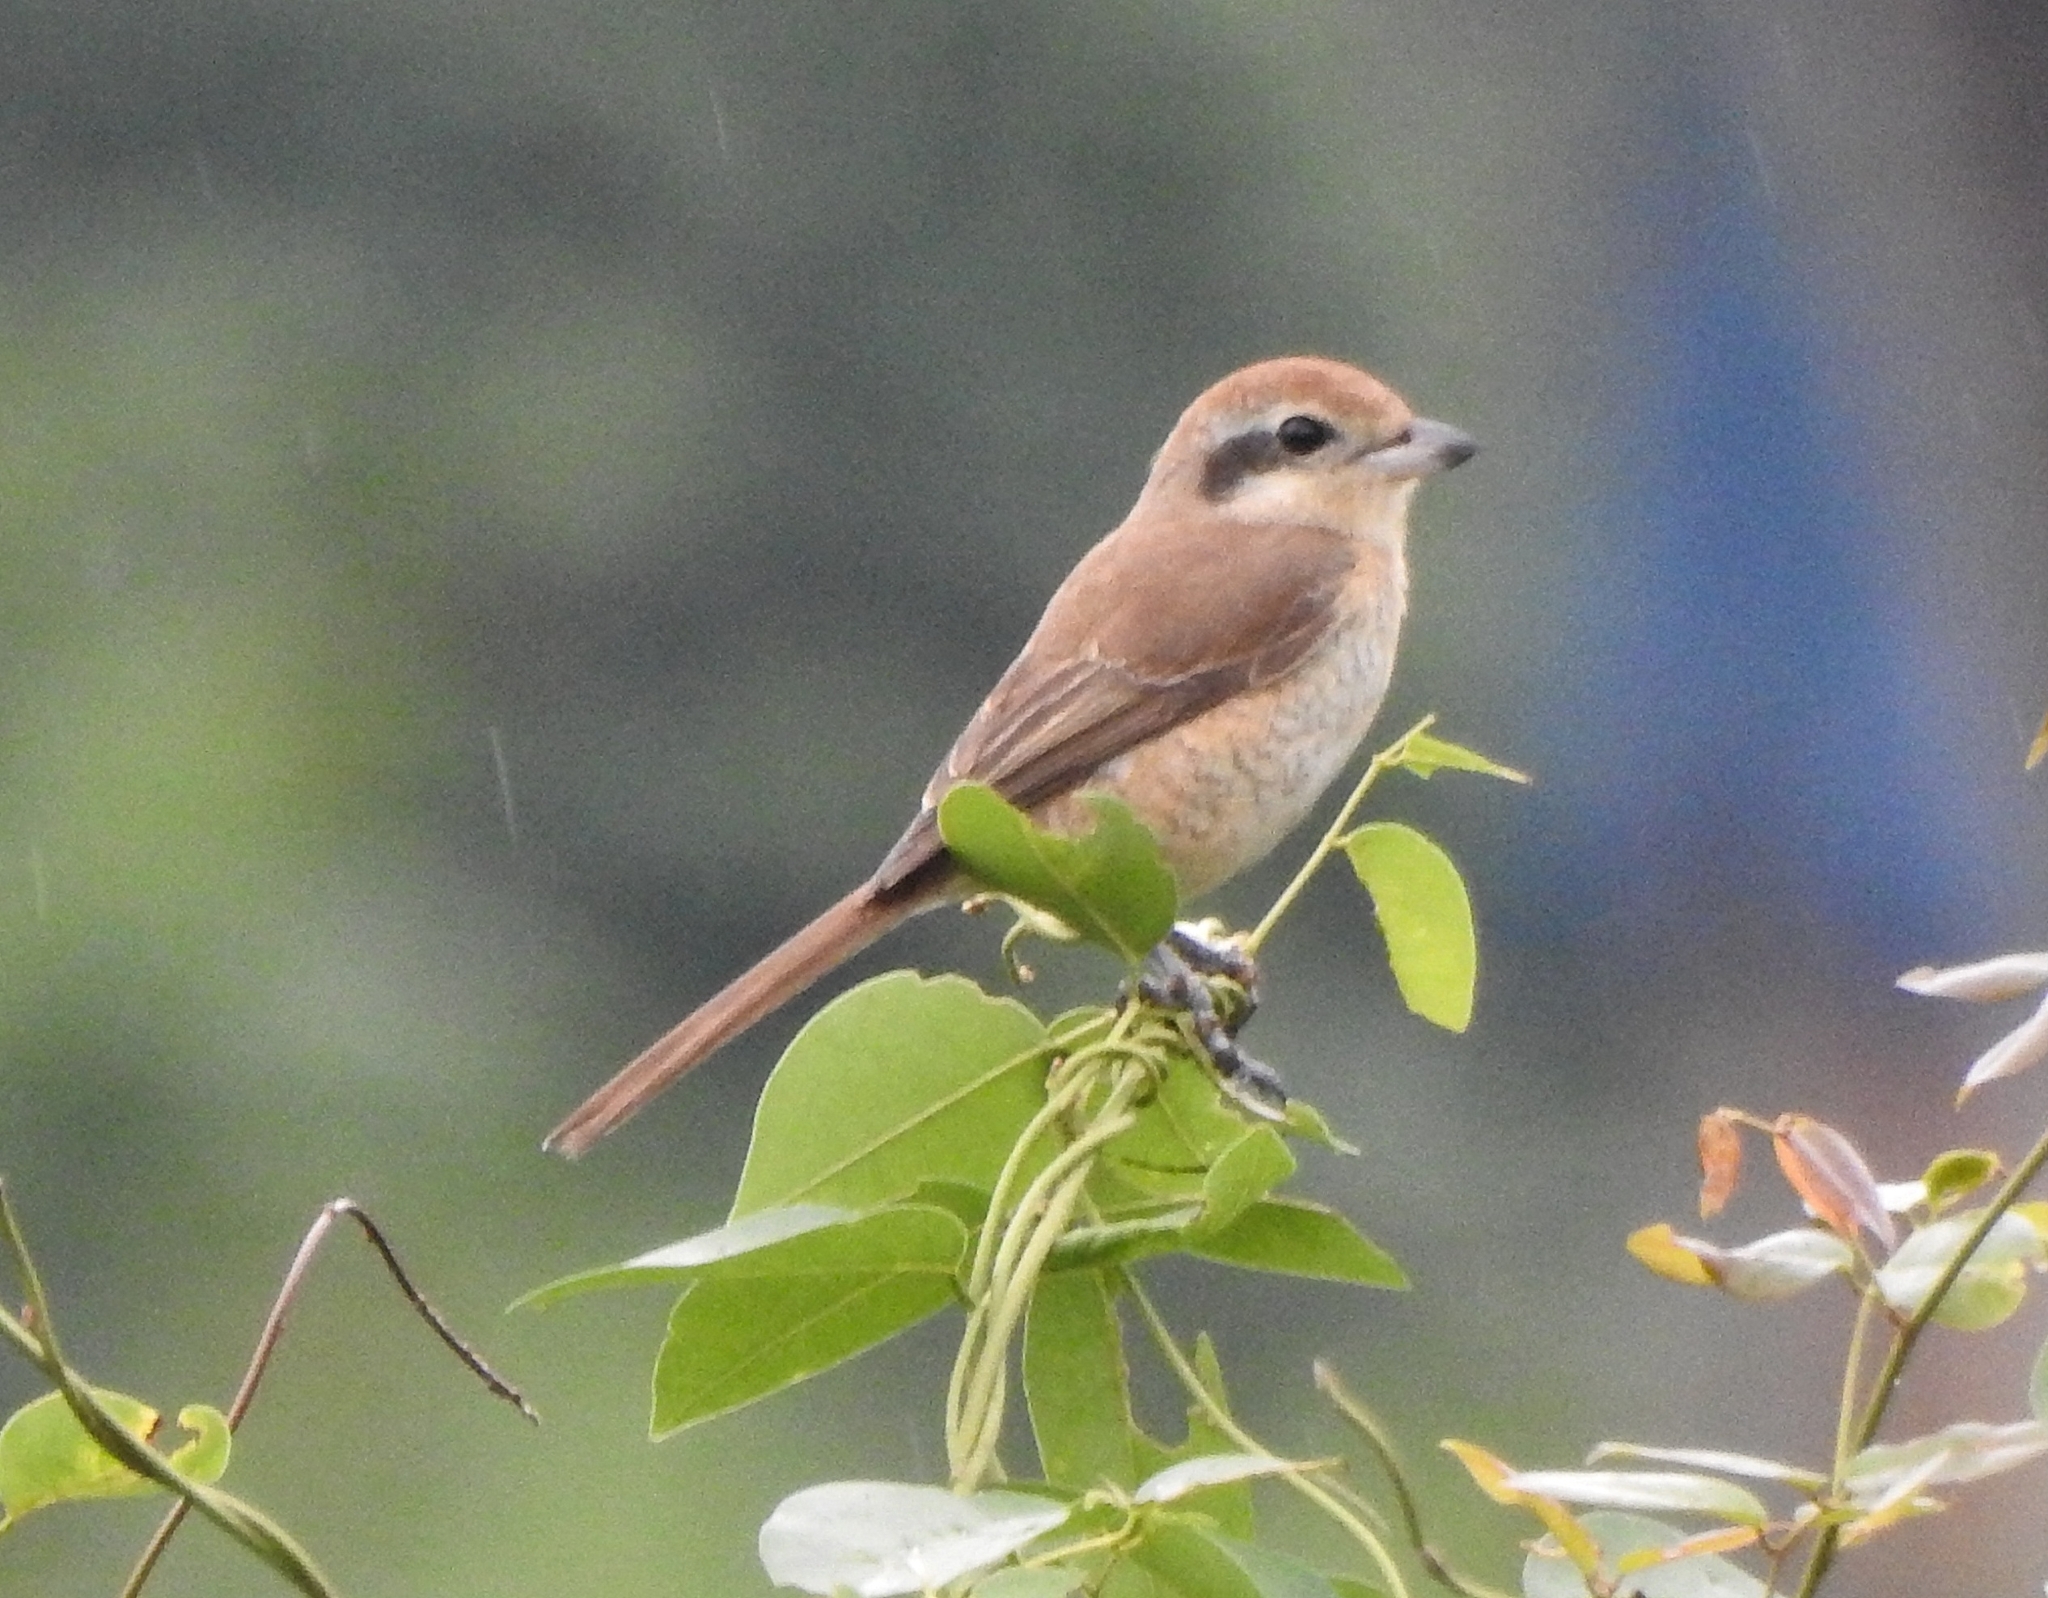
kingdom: Animalia
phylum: Chordata
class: Aves
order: Passeriformes
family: Laniidae
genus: Lanius
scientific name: Lanius cristatus
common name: Brown shrike
